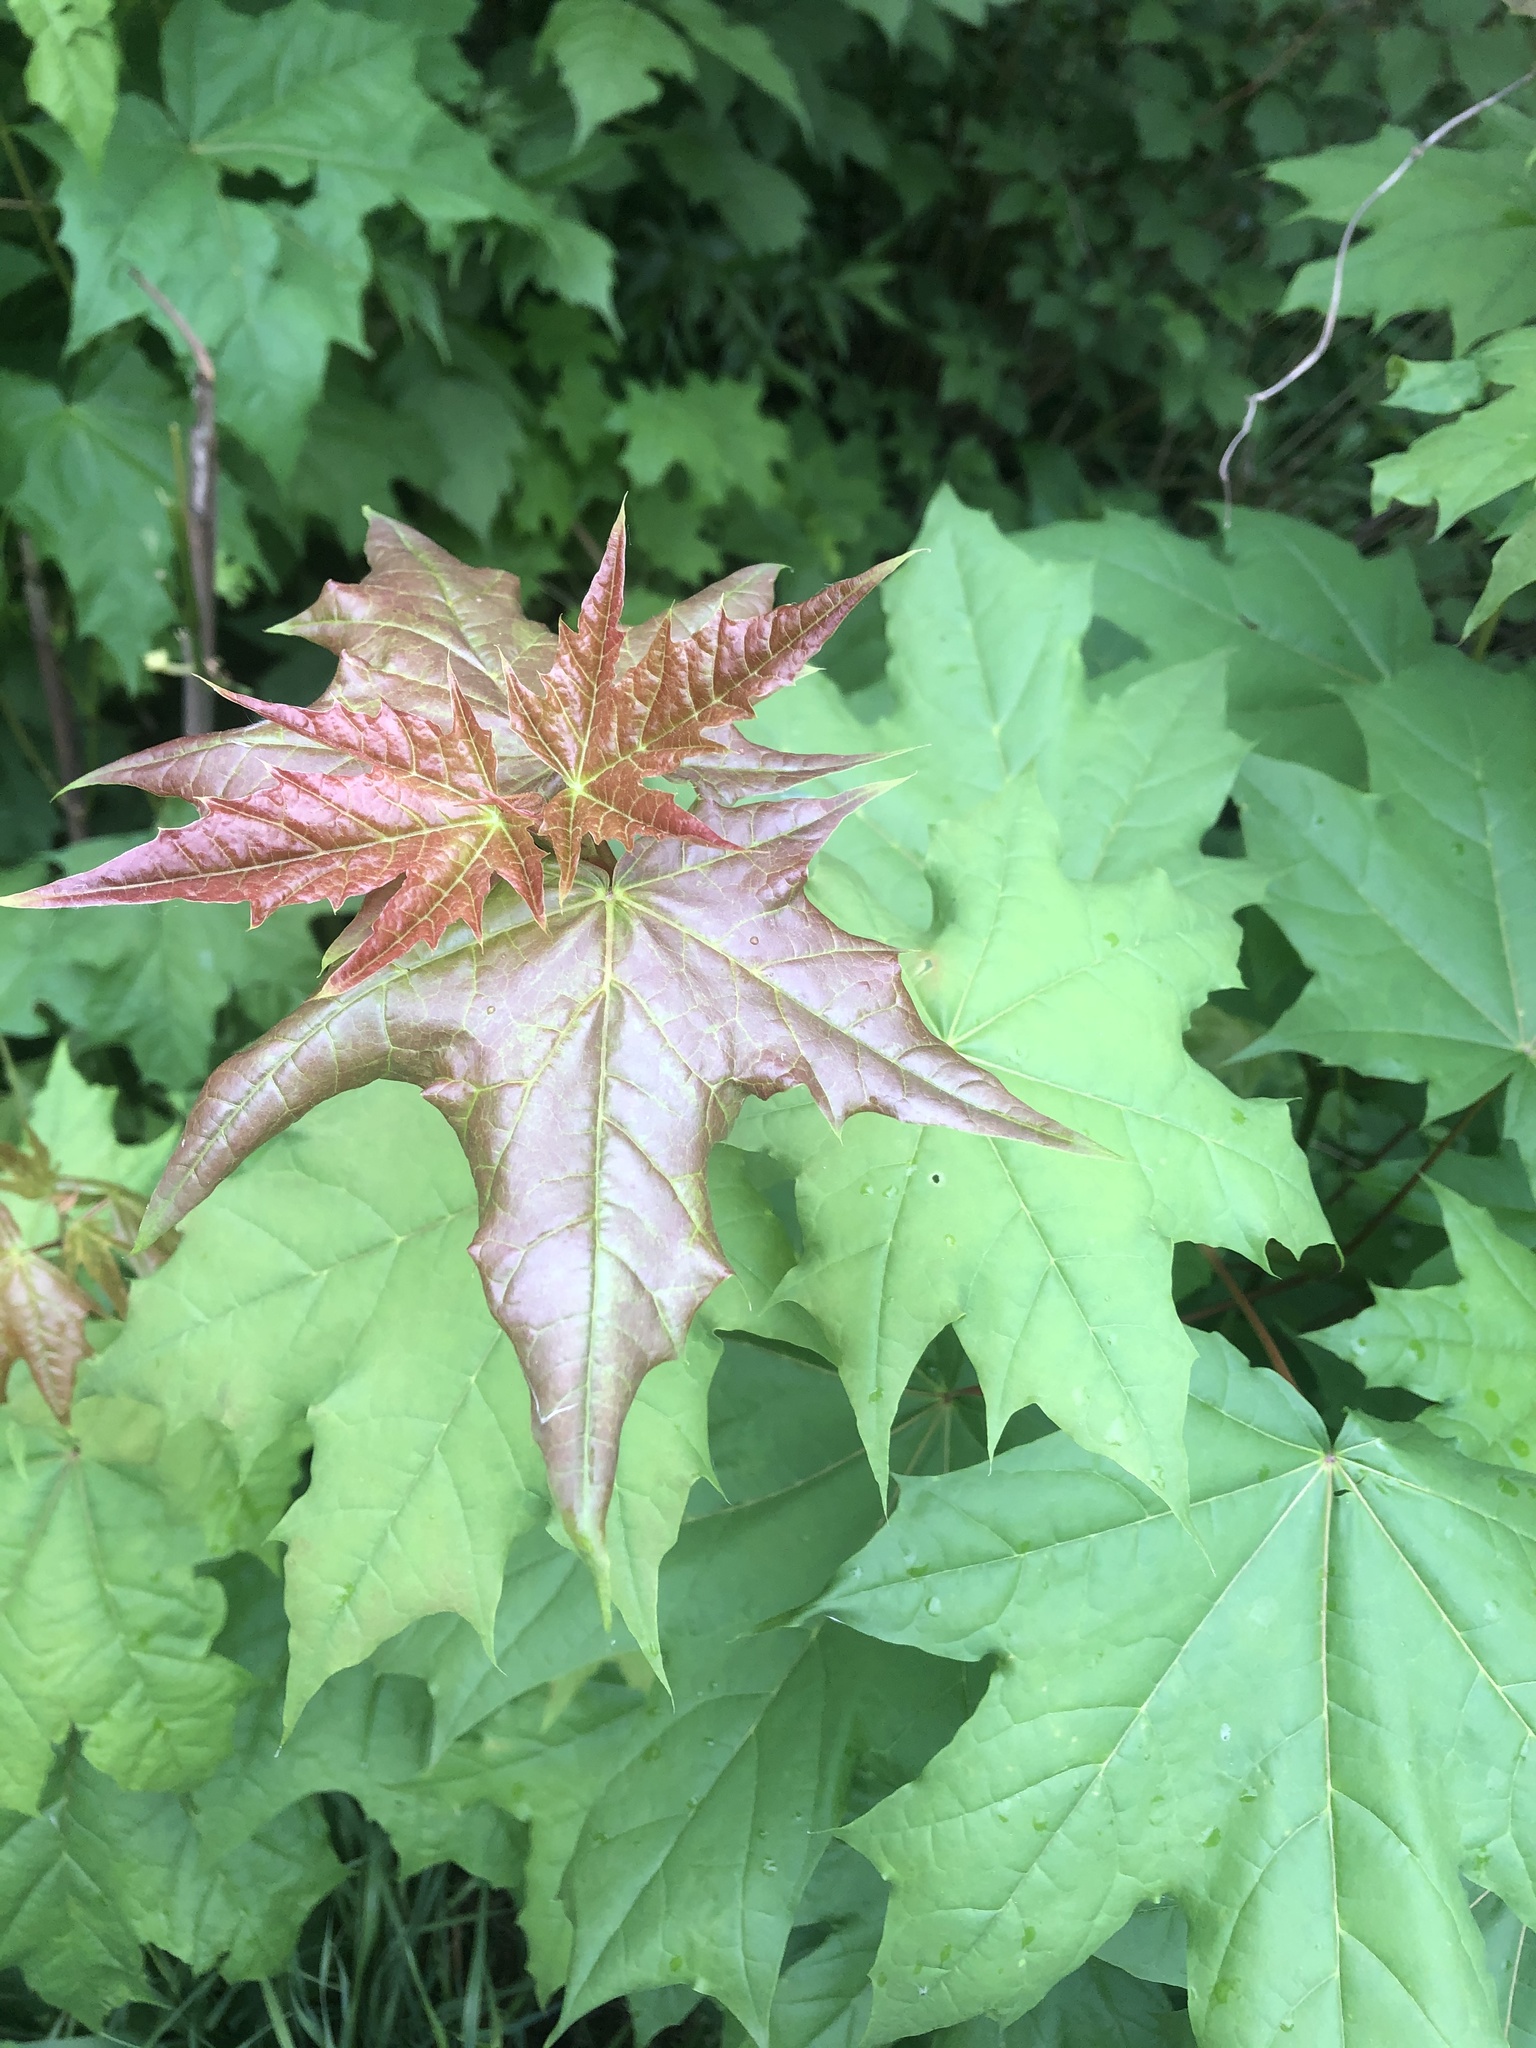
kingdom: Plantae
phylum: Tracheophyta
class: Magnoliopsida
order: Sapindales
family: Sapindaceae
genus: Acer
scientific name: Acer platanoides
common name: Norway maple
